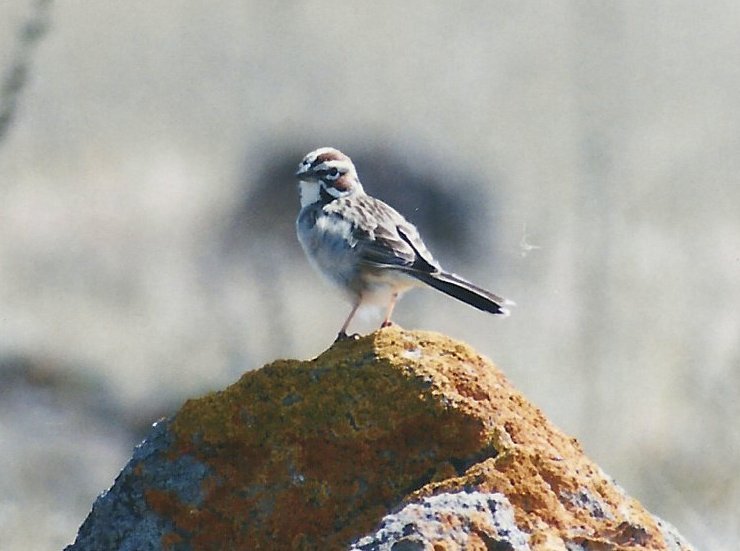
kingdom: Animalia
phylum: Chordata
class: Aves
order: Passeriformes
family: Passerellidae
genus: Chondestes
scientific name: Chondestes grammacus
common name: Lark sparrow
